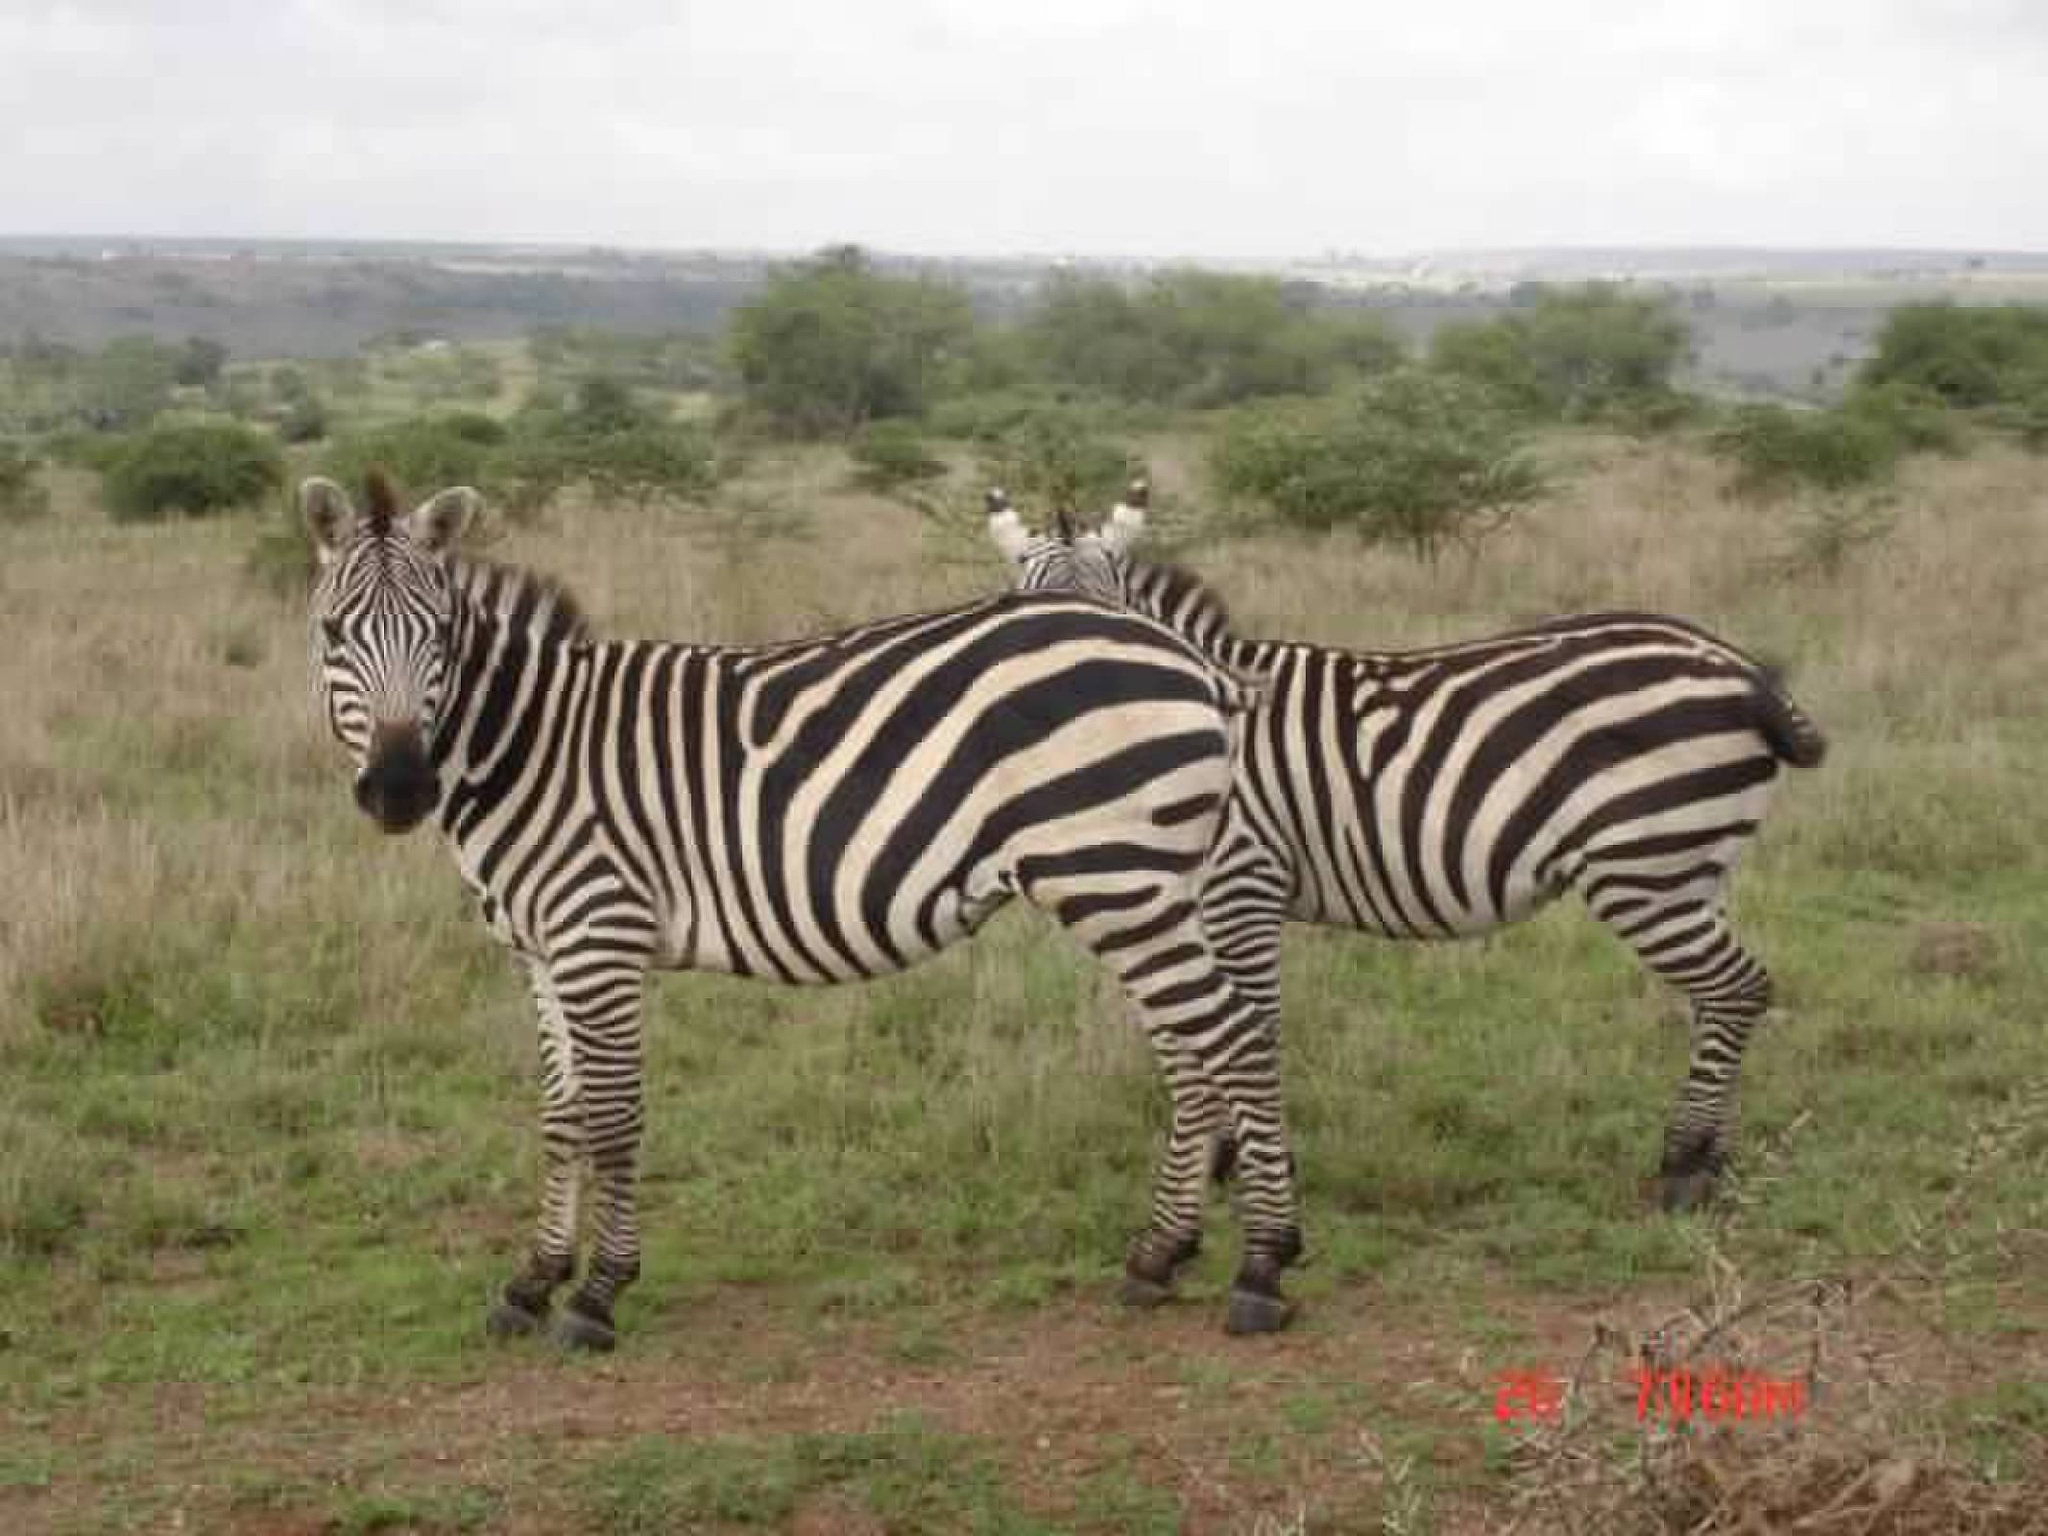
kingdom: Animalia
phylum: Chordata
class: Mammalia
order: Perissodactyla
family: Equidae
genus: Equus
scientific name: Equus quagga
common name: Plains zebra
